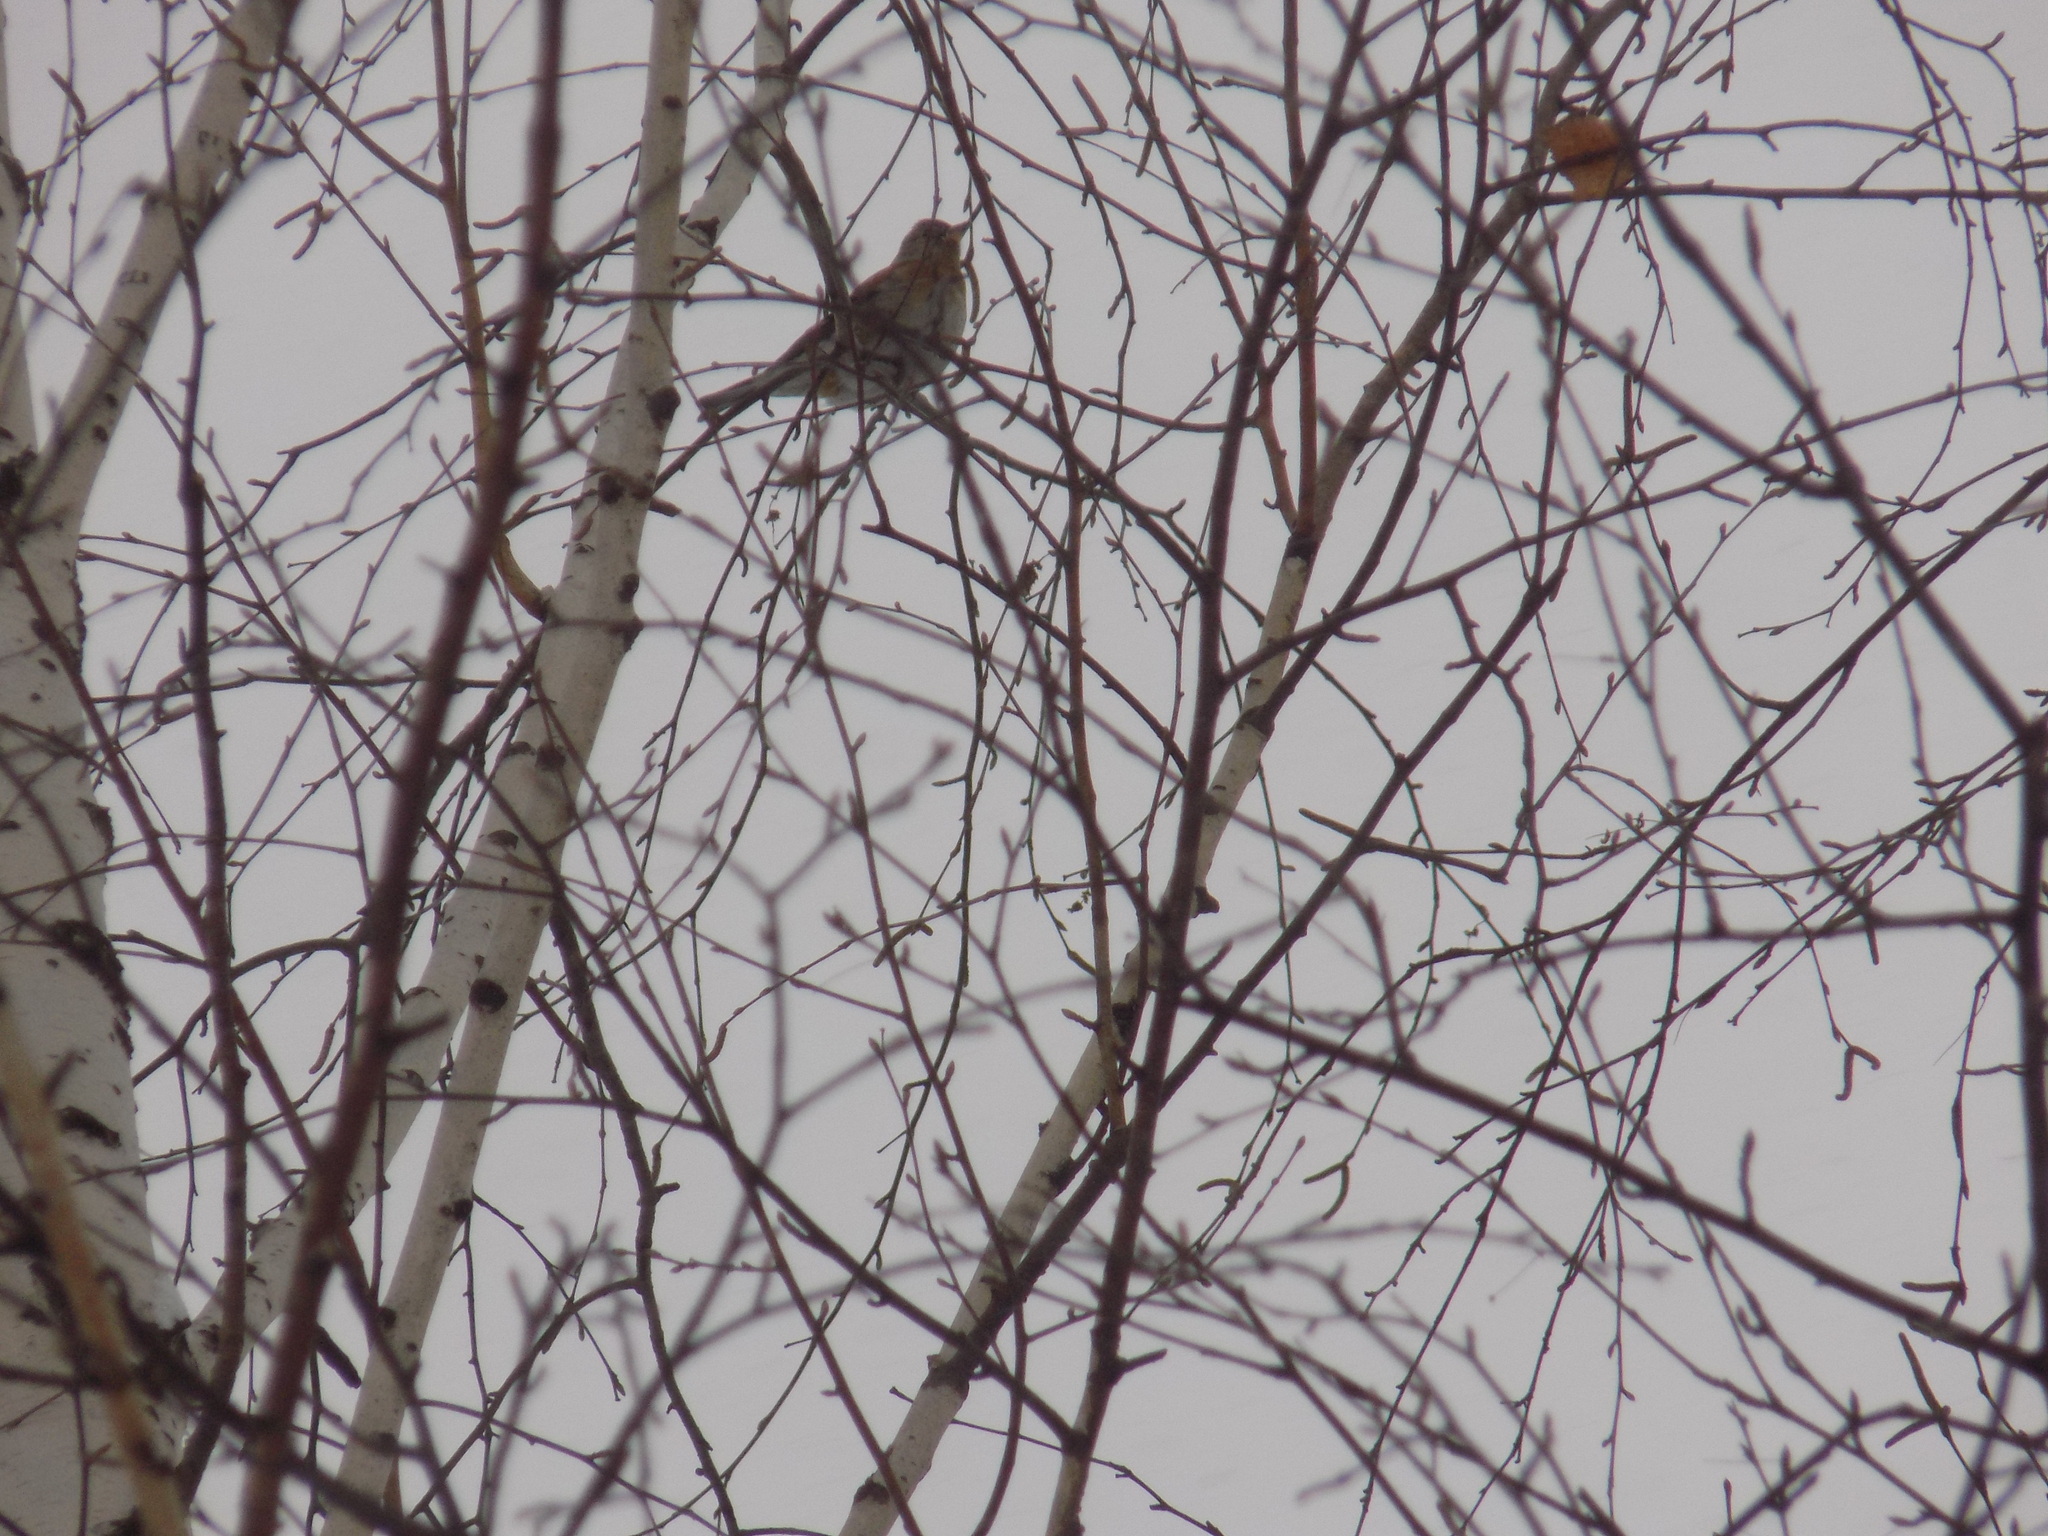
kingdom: Animalia
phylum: Chordata
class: Aves
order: Passeriformes
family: Fringillidae
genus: Fringilla
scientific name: Fringilla montifringilla
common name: Brambling
